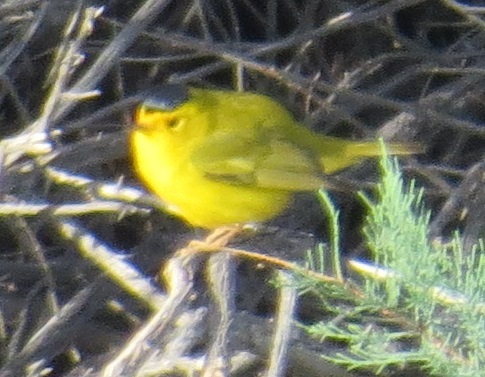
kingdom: Animalia
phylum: Chordata
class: Aves
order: Passeriformes
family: Parulidae
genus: Cardellina
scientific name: Cardellina pusilla
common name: Wilson's warbler
